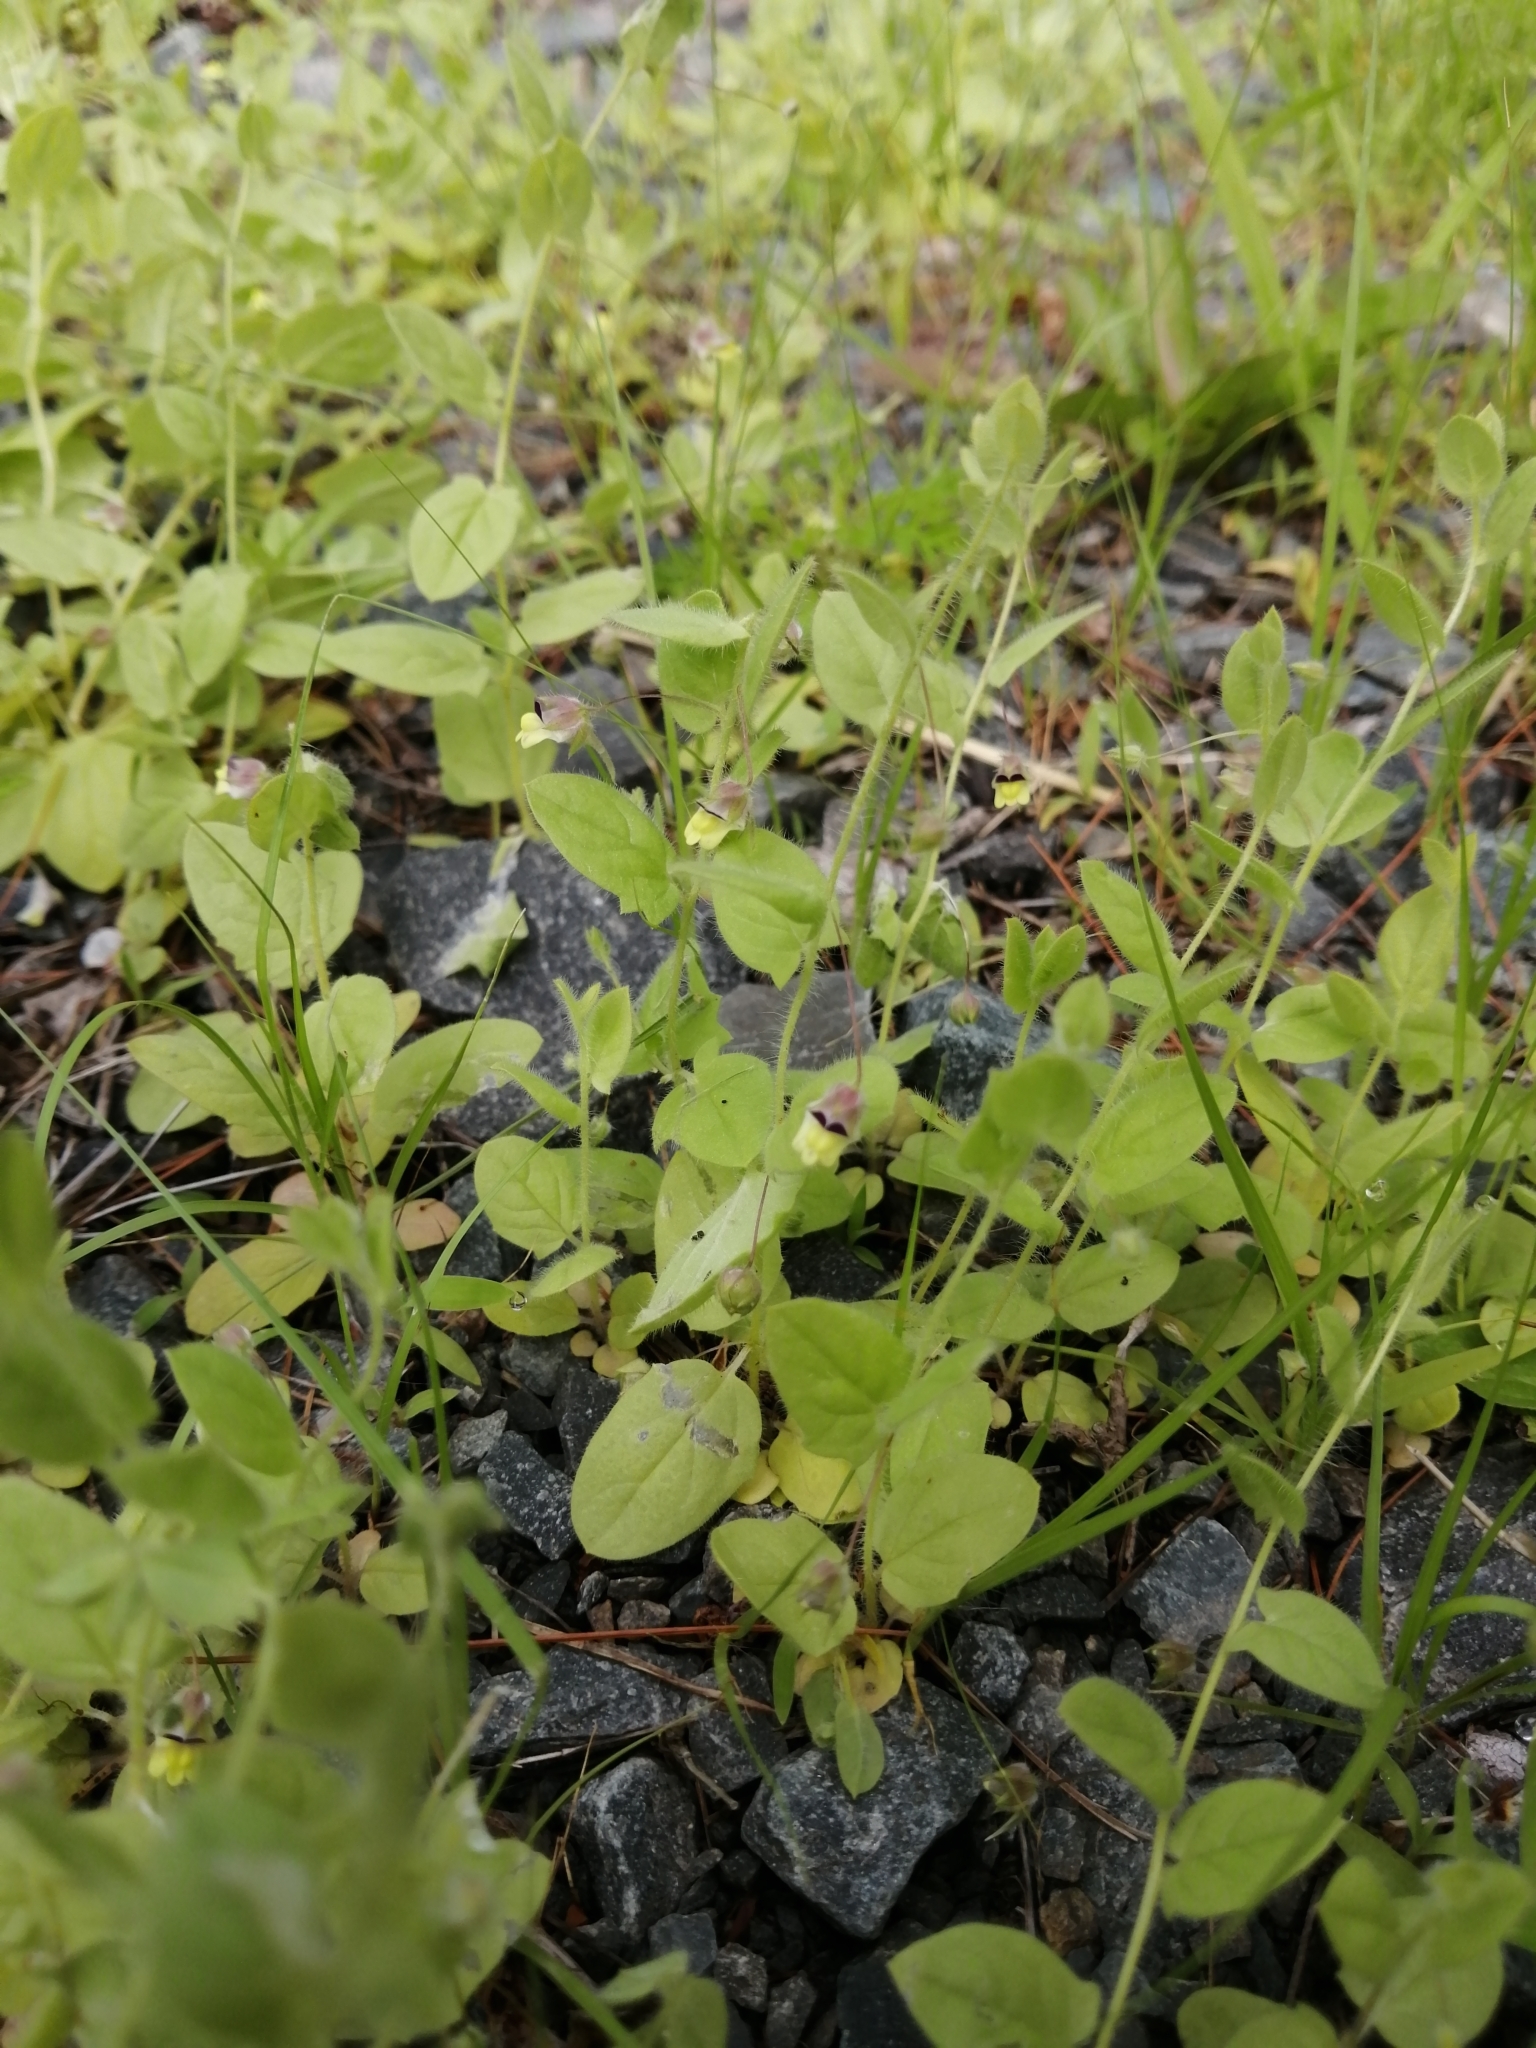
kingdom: Plantae
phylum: Tracheophyta
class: Magnoliopsida
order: Lamiales
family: Plantaginaceae
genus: Kickxia
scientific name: Kickxia elatine
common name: Sharp-leaved fluellen
